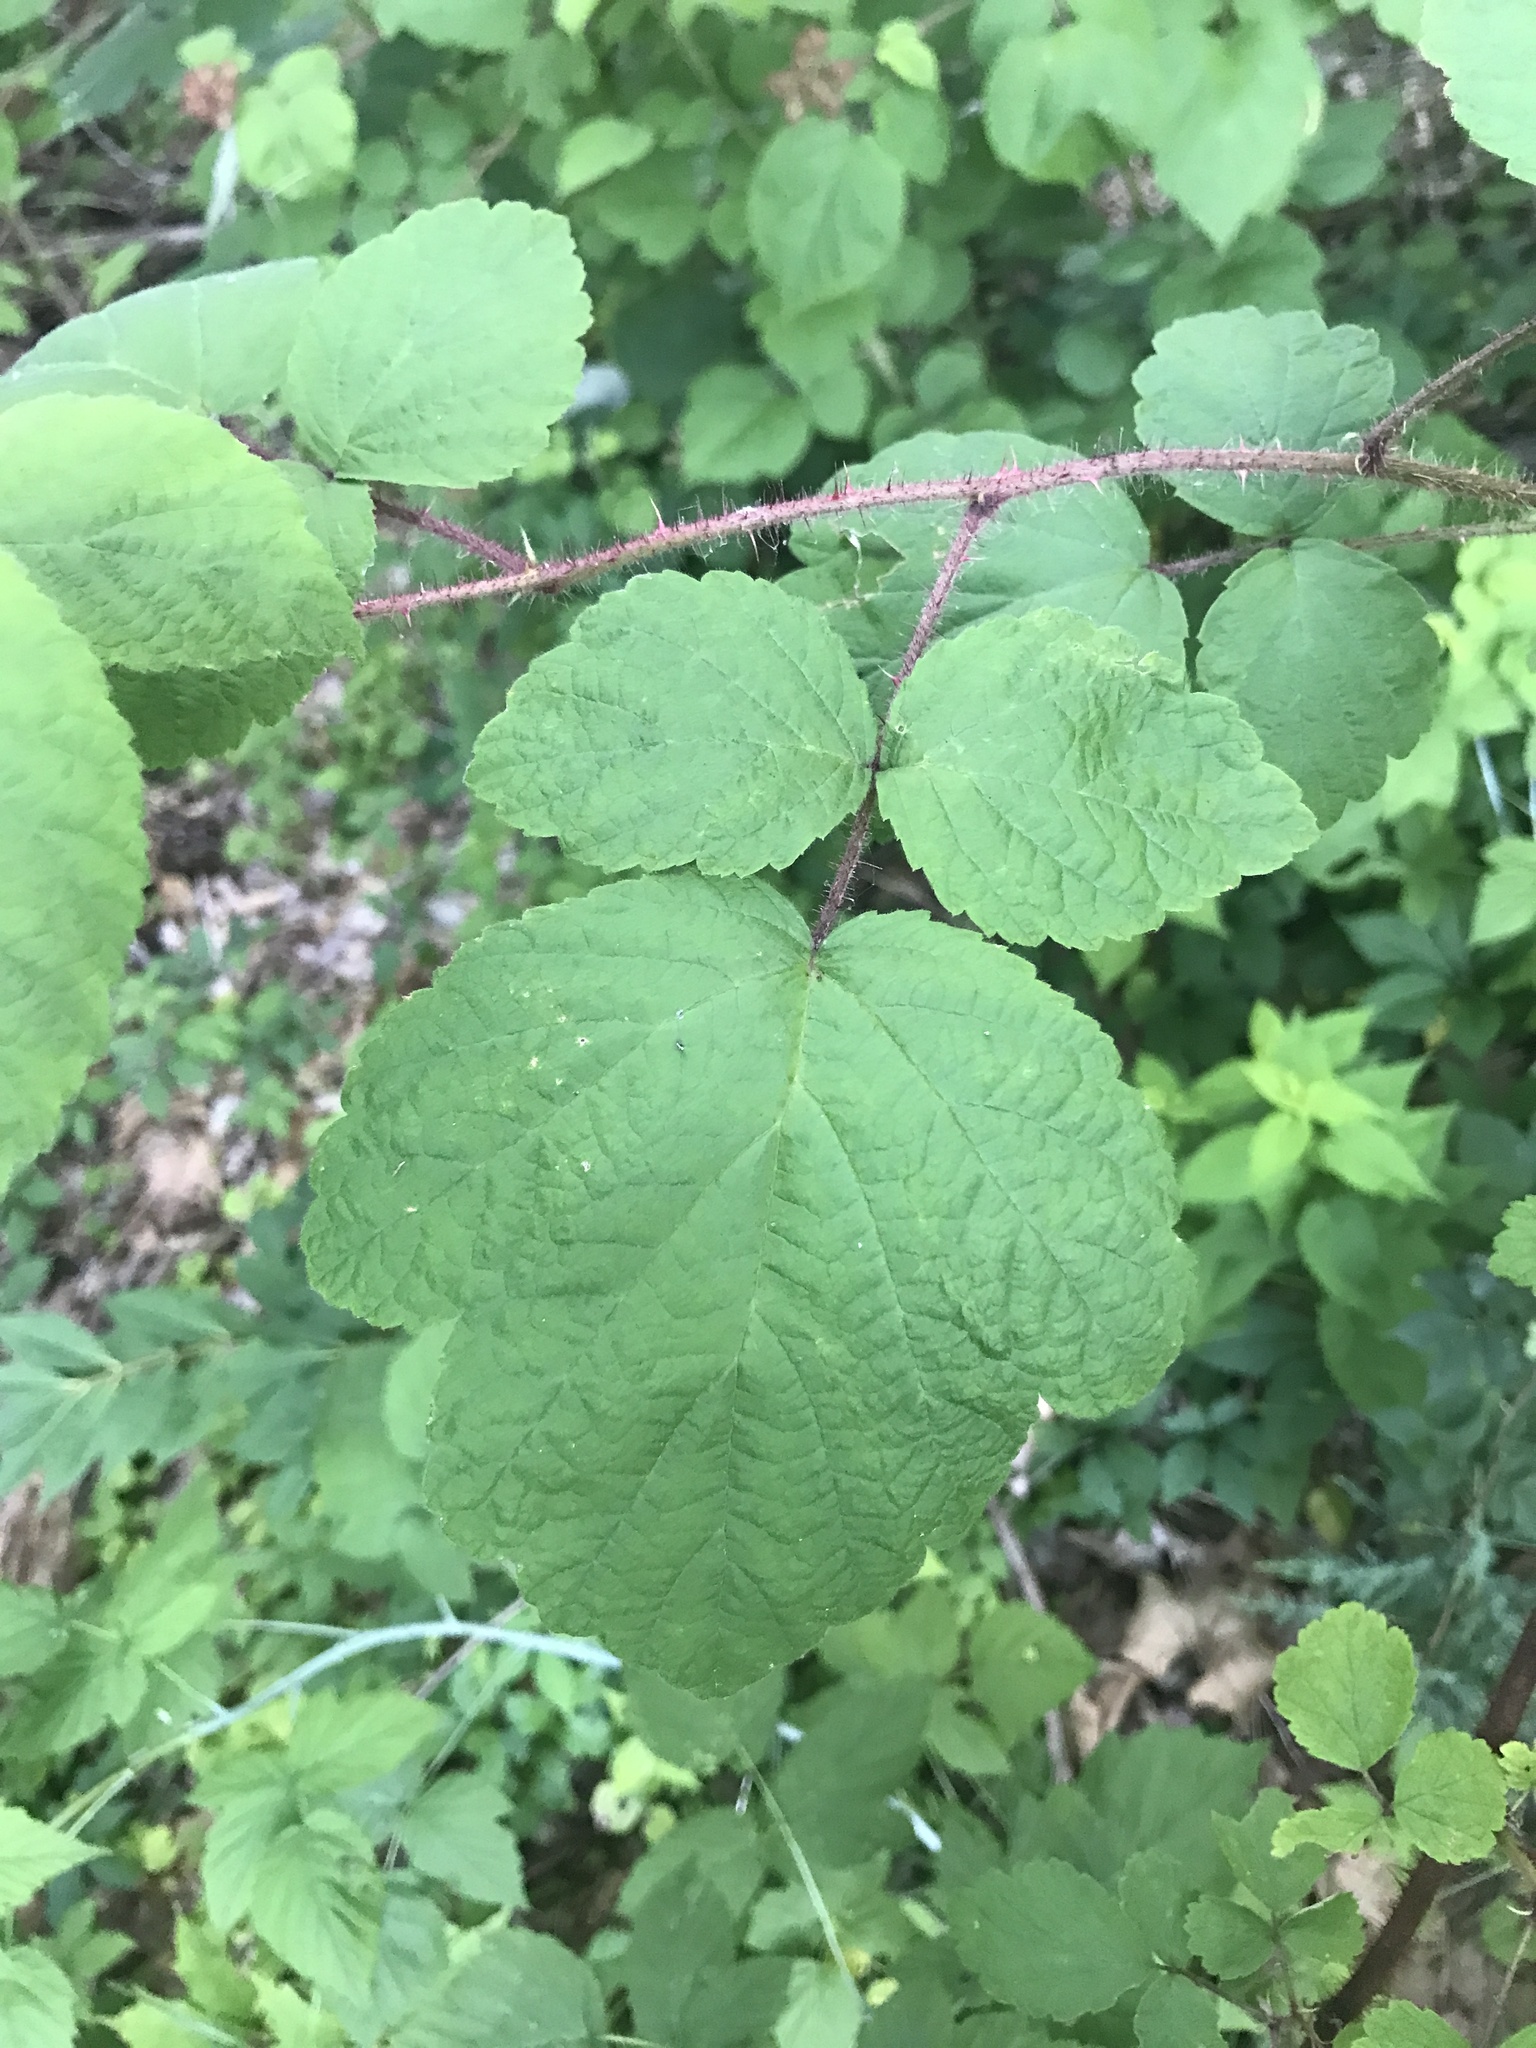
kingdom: Plantae
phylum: Tracheophyta
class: Magnoliopsida
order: Rosales
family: Rosaceae
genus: Rubus
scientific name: Rubus phoenicolasius
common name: Japanese wineberry
